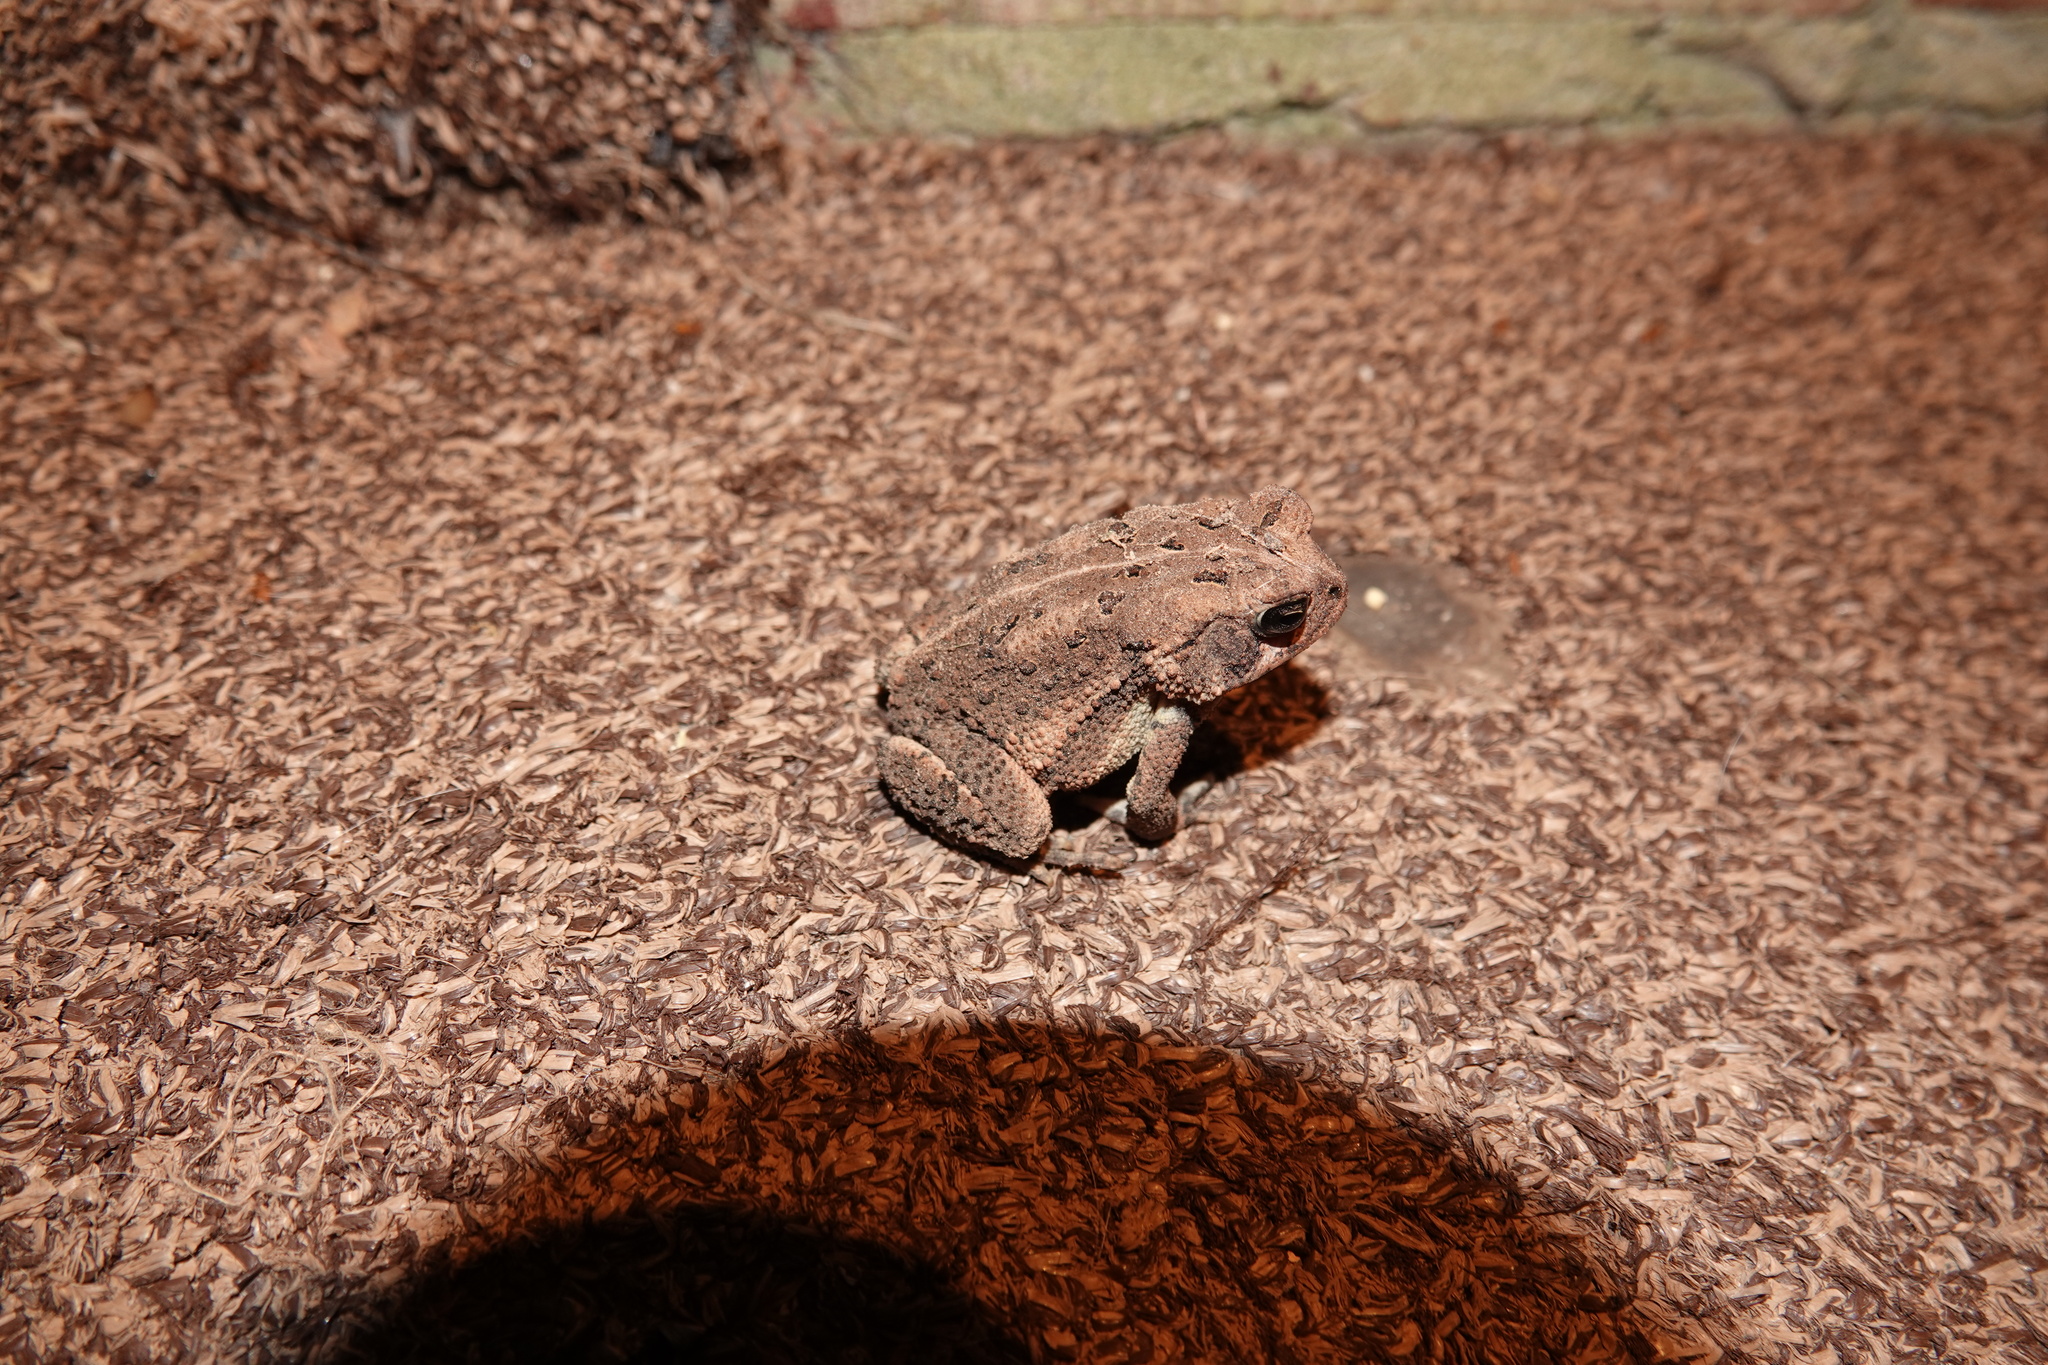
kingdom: Animalia
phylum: Chordata
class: Amphibia
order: Anura
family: Bufonidae
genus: Anaxyrus
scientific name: Anaxyrus fowleri
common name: Fowler's toad
